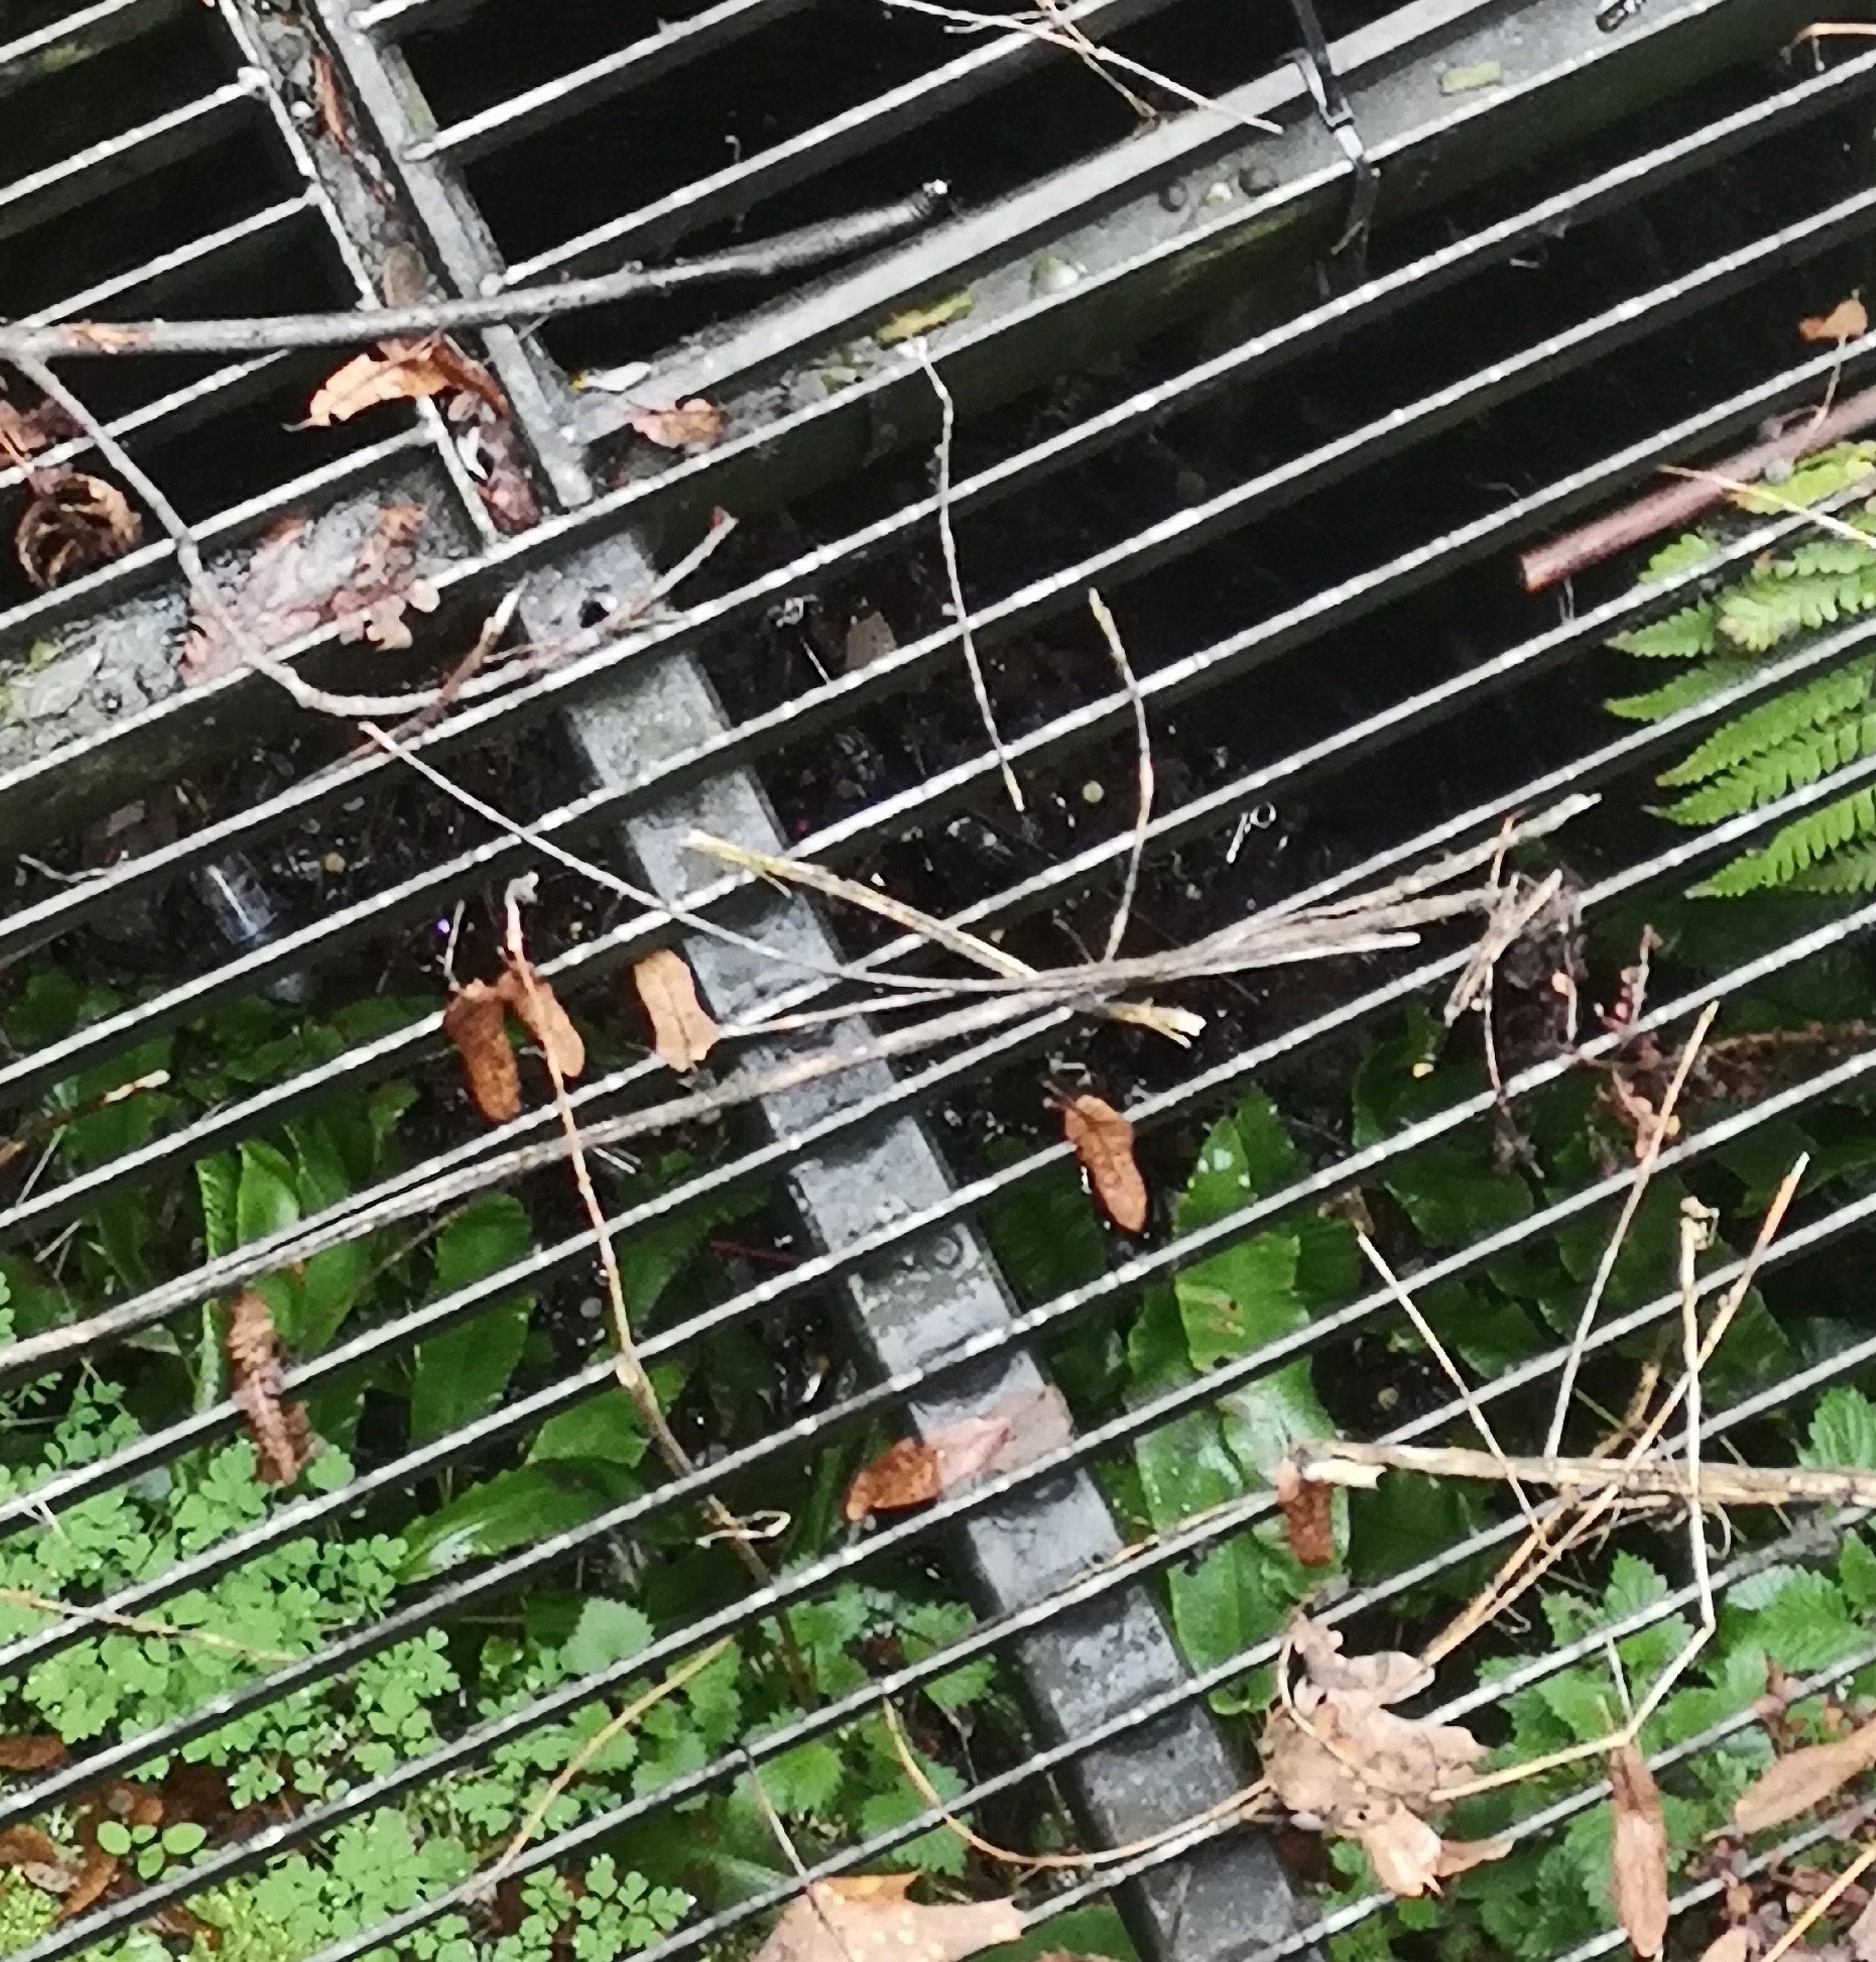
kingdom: Plantae
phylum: Tracheophyta
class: Polypodiopsida
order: Polypodiales
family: Aspleniaceae
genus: Asplenium
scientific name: Asplenium scolopendrium
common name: Hart's-tongue fern
